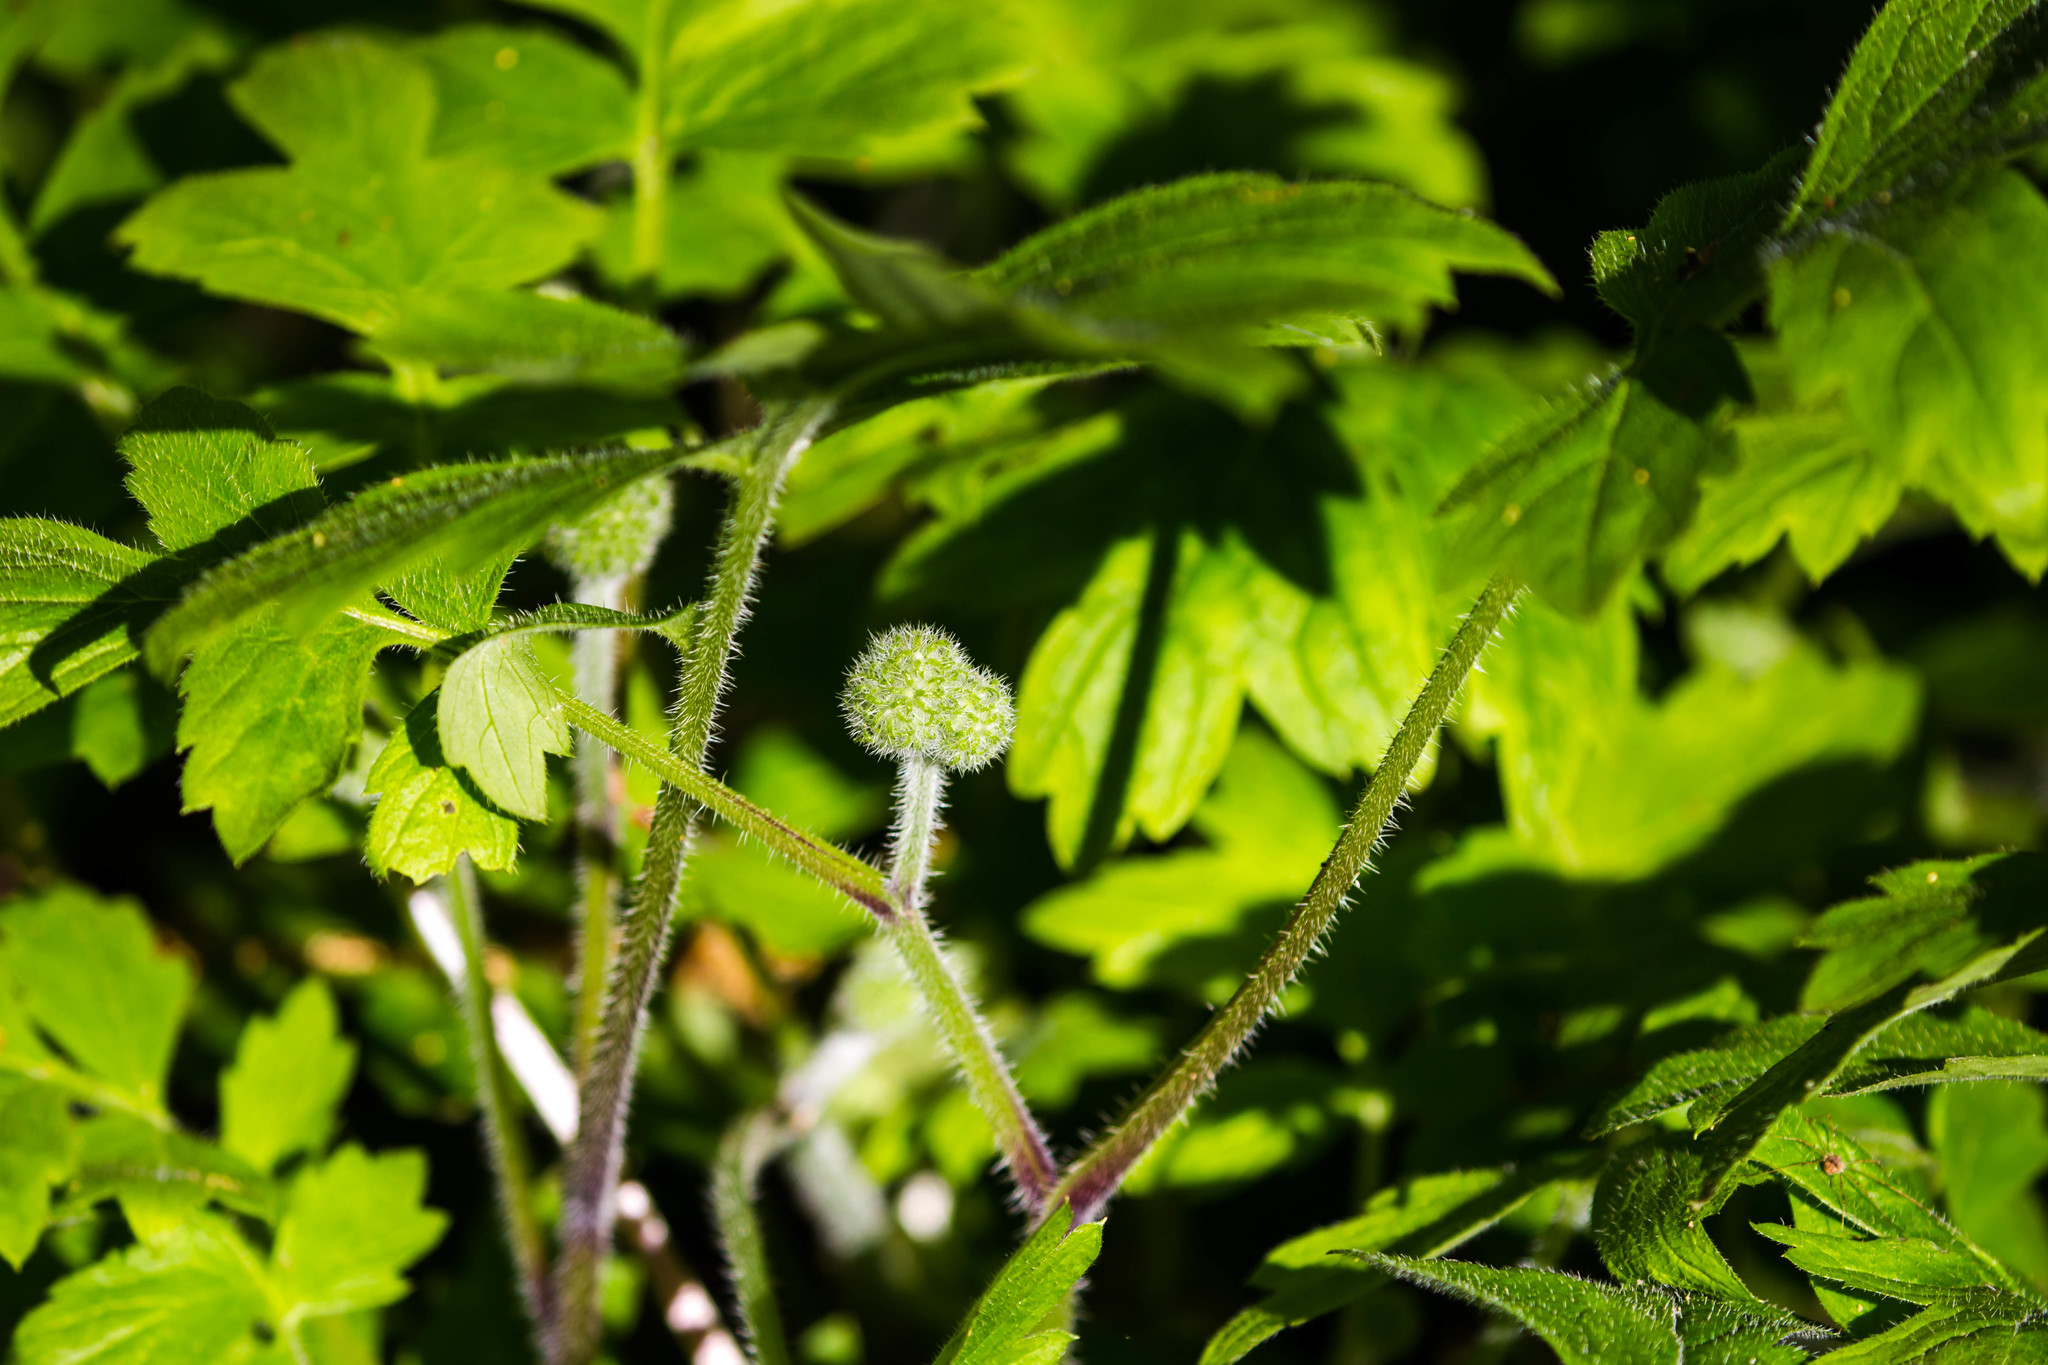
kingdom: Plantae
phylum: Tracheophyta
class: Magnoliopsida
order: Boraginales
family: Hydrophyllaceae
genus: Hydrophyllum
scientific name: Hydrophyllum macrophyllum
